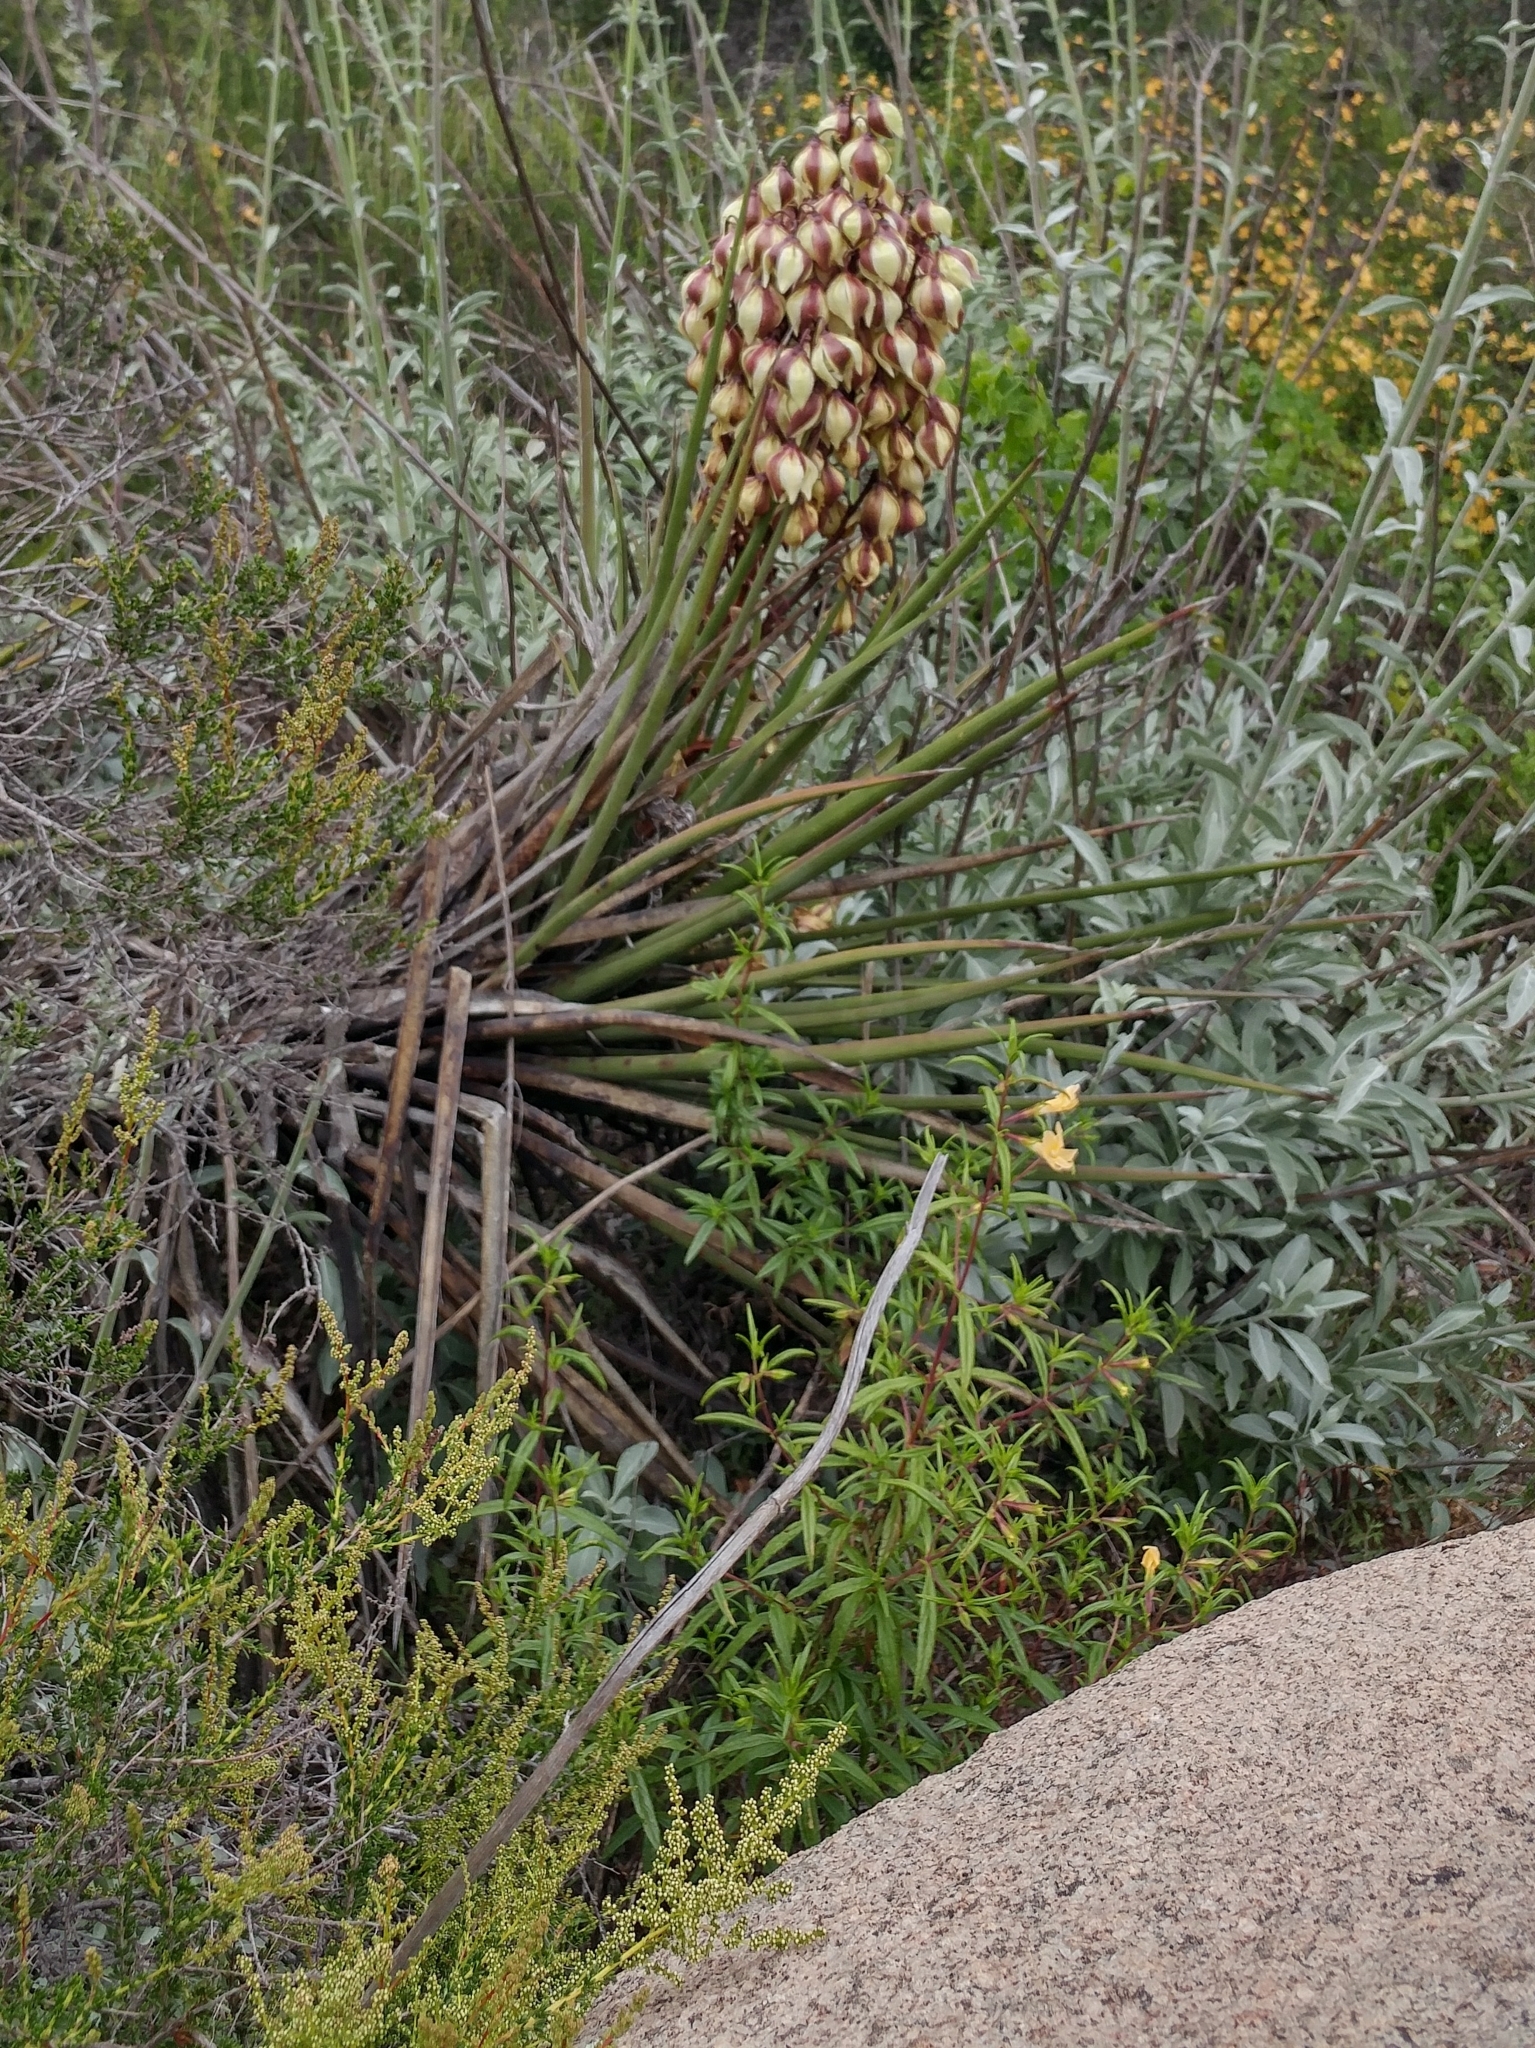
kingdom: Plantae
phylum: Tracheophyta
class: Liliopsida
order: Asparagales
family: Asparagaceae
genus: Yucca
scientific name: Yucca schidigera
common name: Mojave yucca
